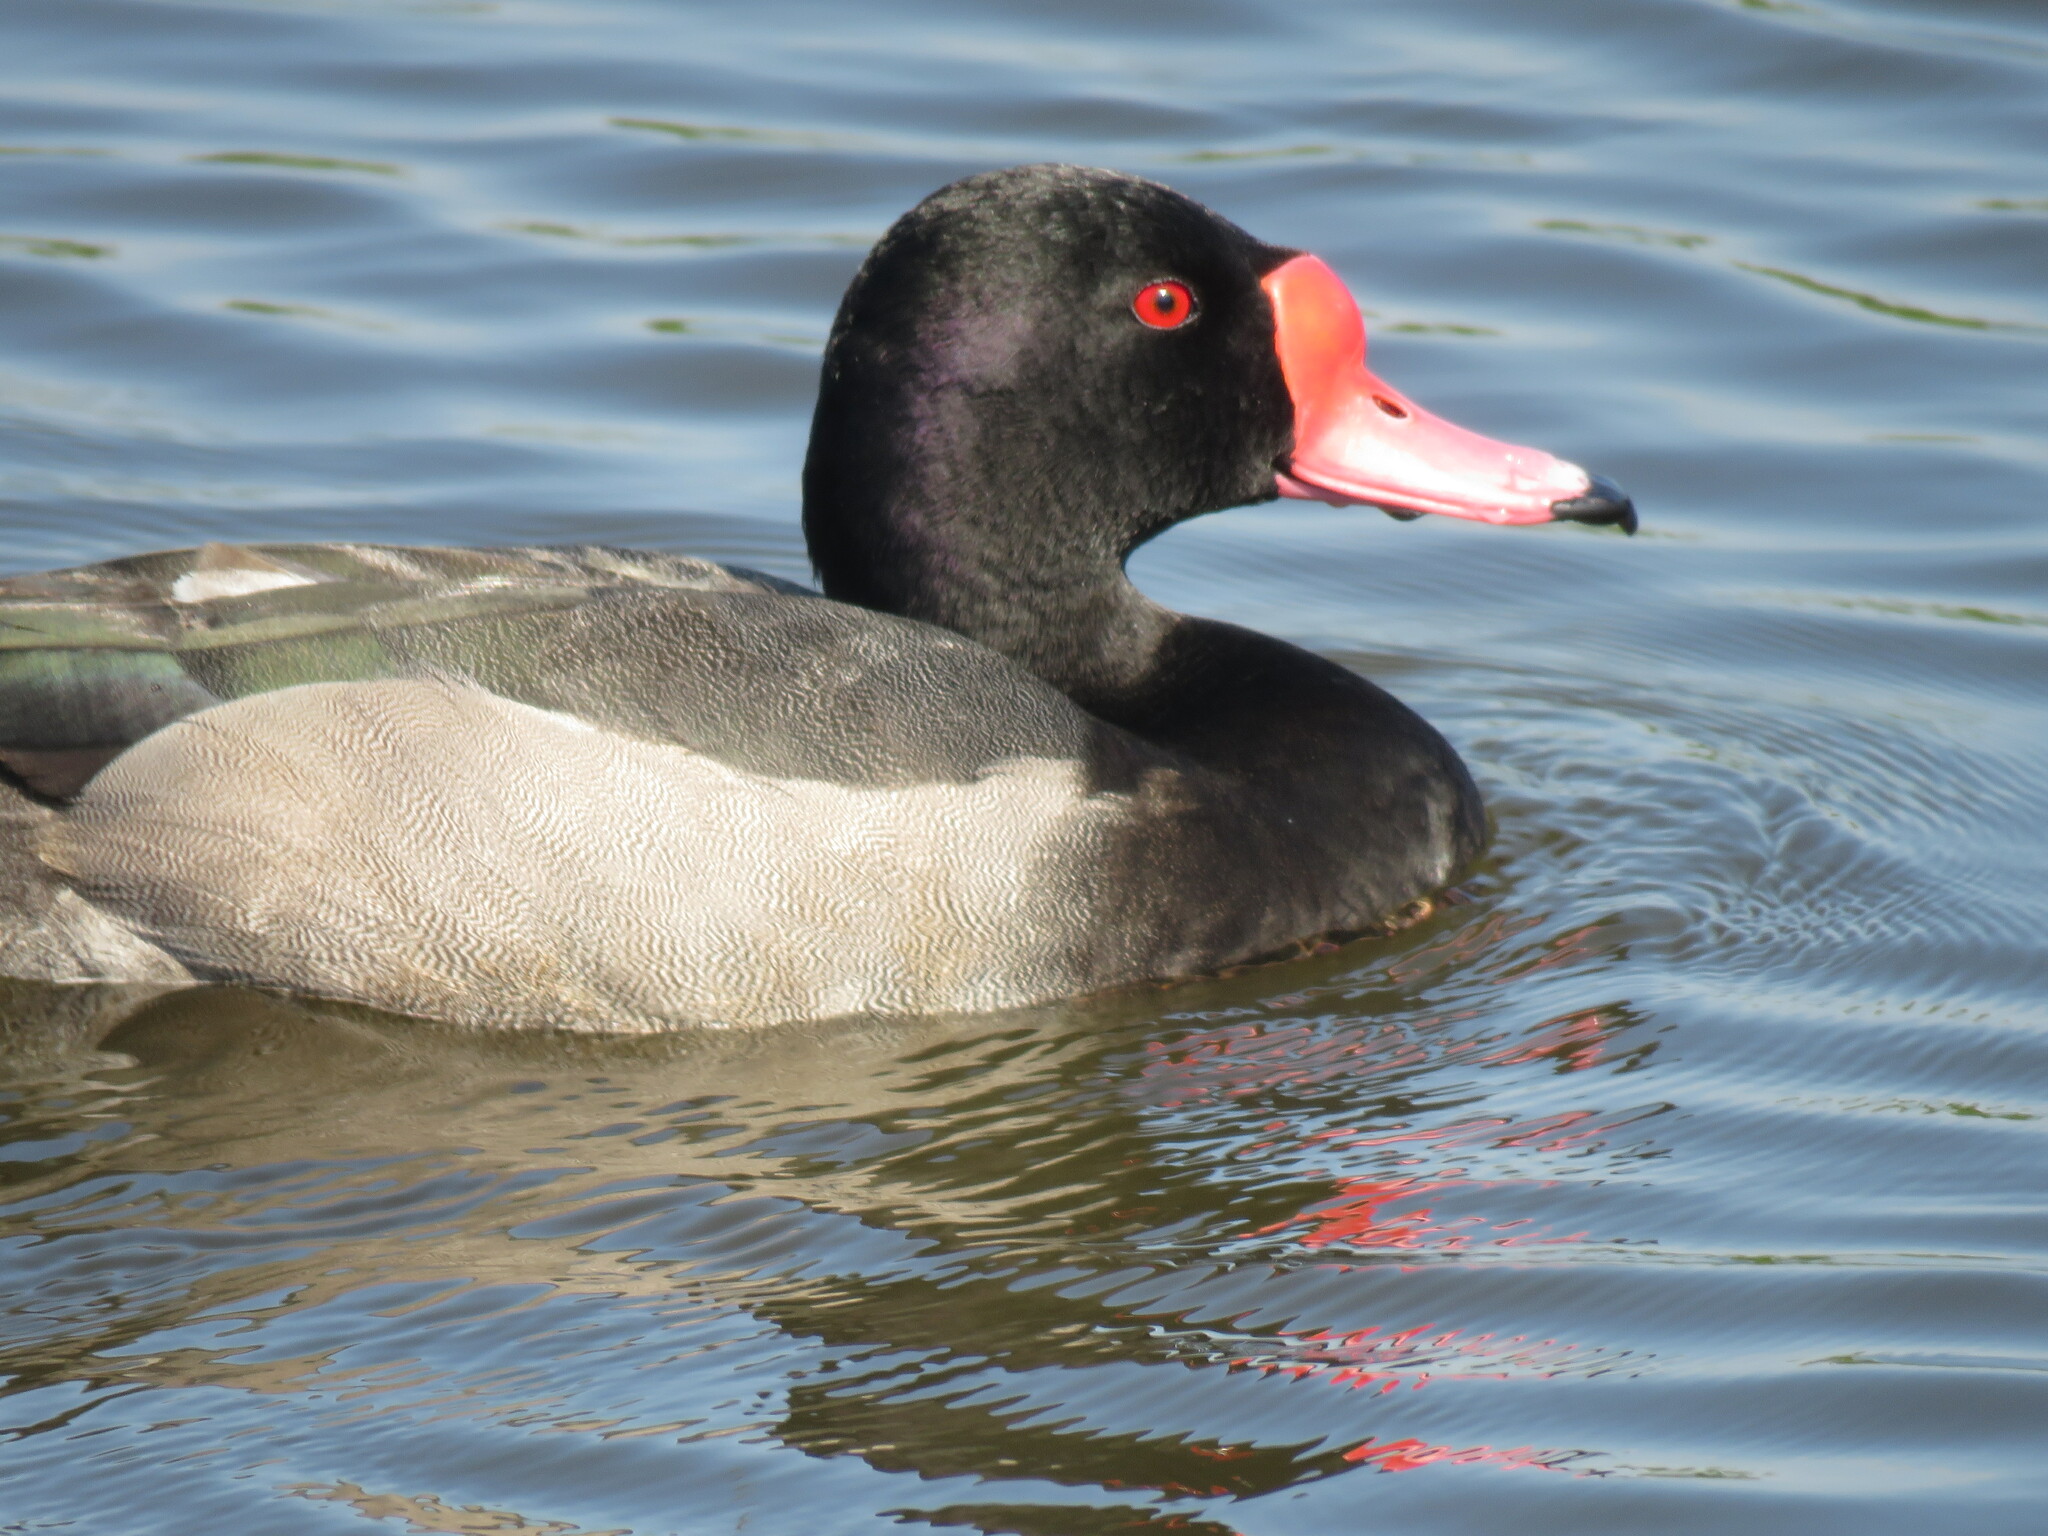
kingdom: Animalia
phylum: Chordata
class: Aves
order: Anseriformes
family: Anatidae
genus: Netta
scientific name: Netta peposaca
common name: Rosy-billed pochard
